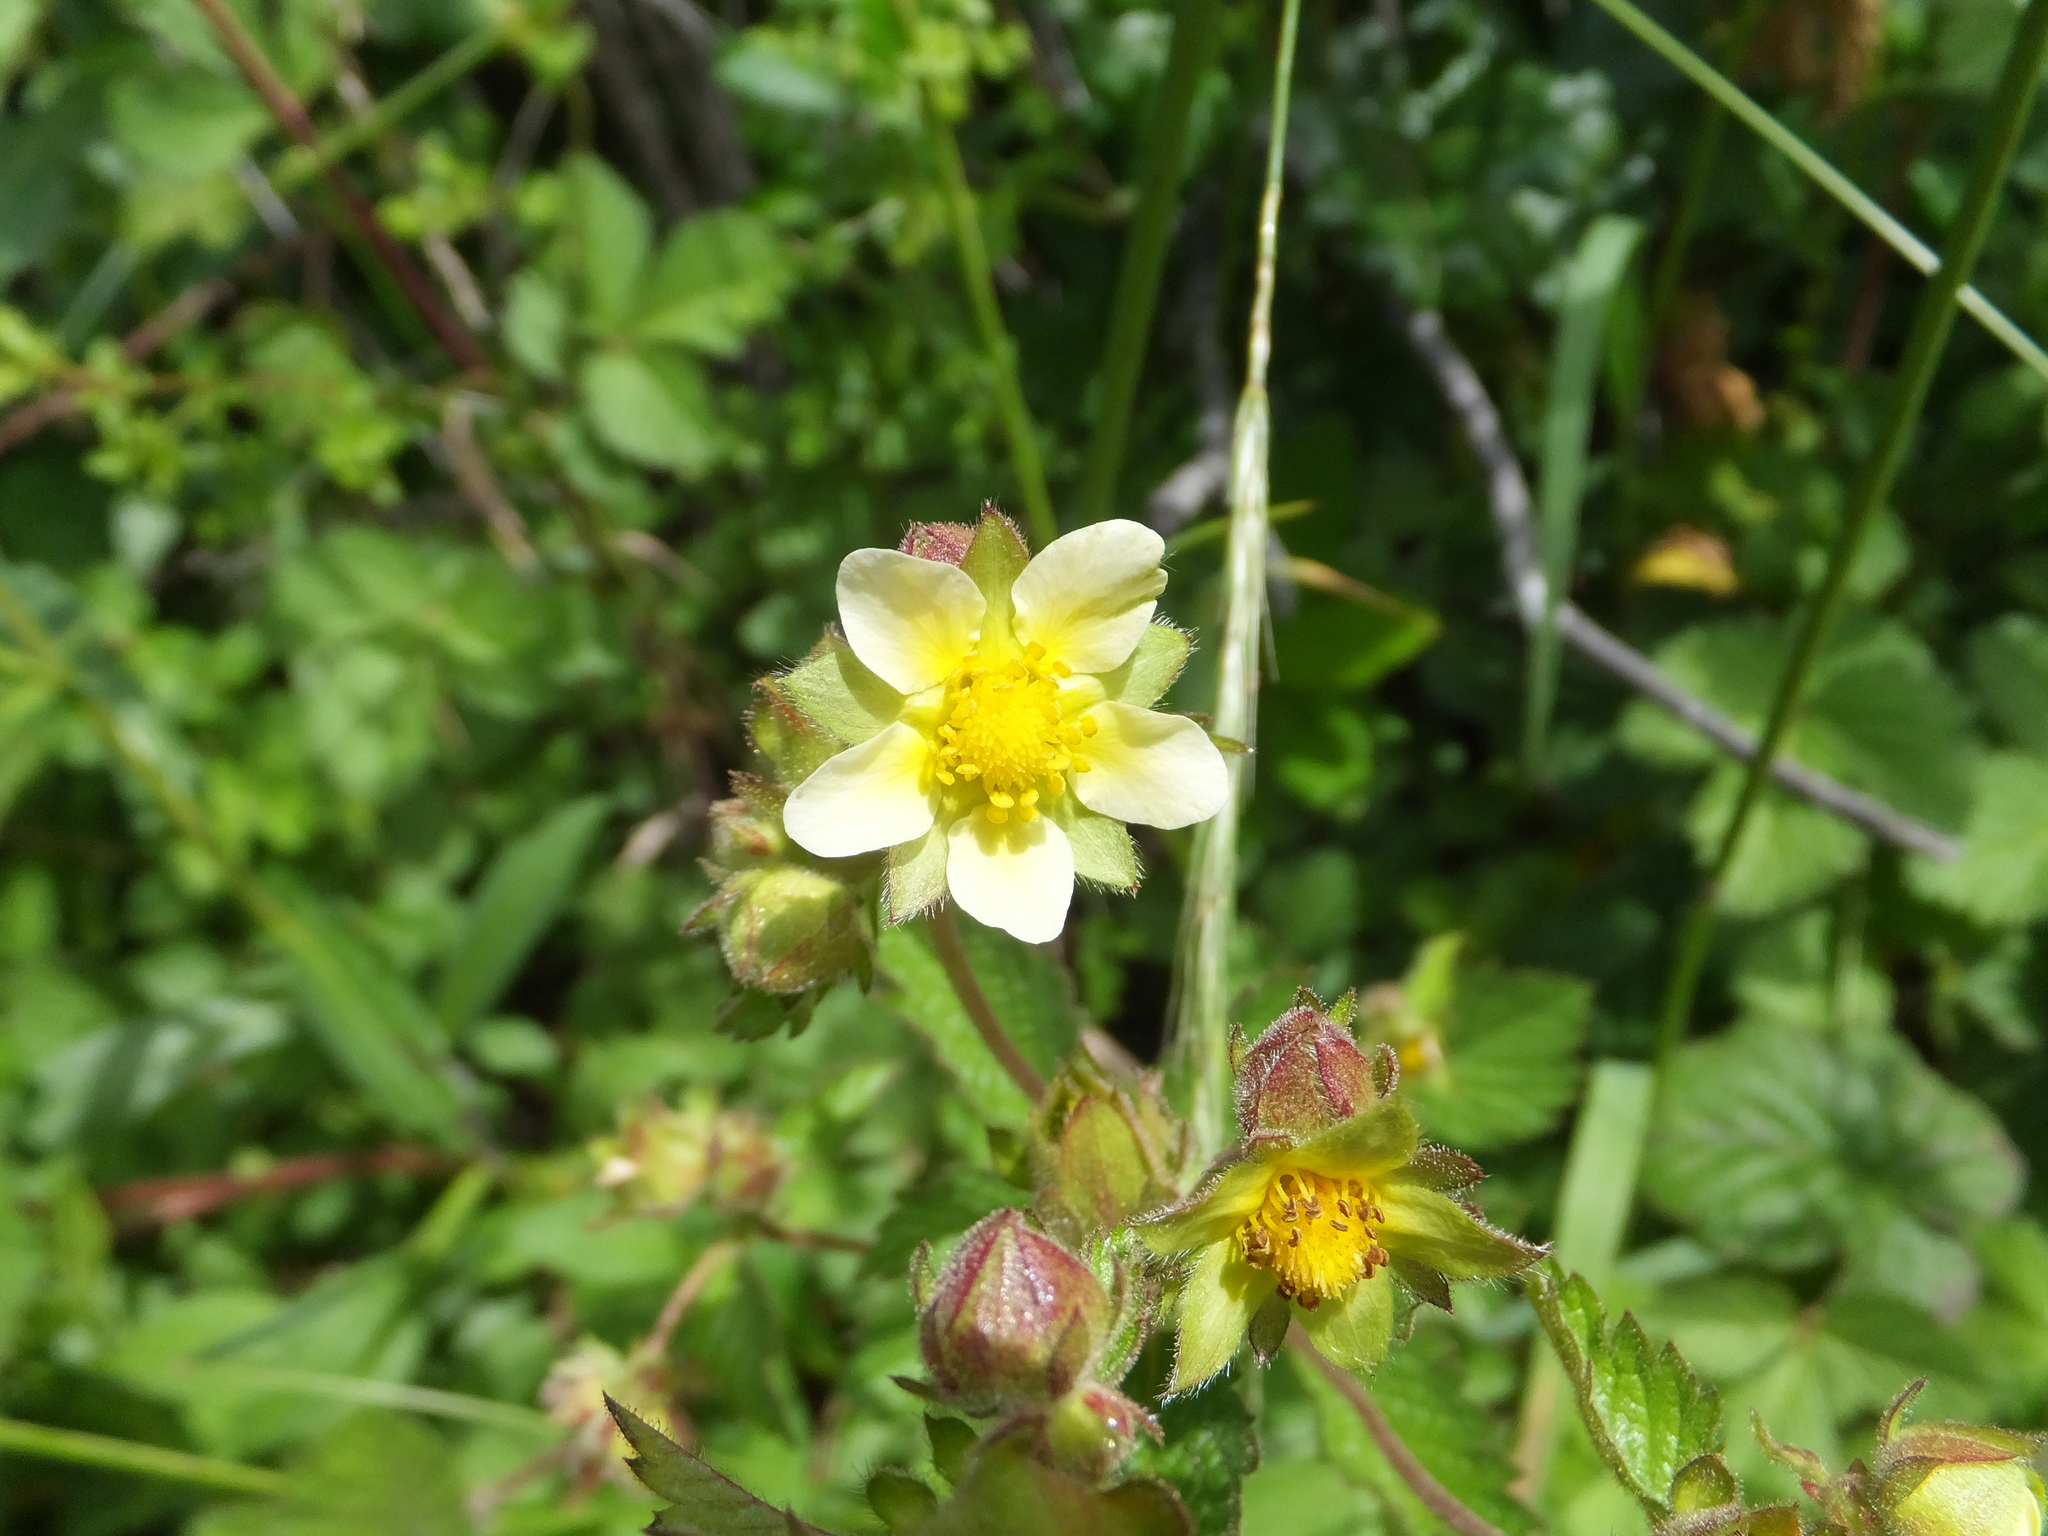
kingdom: Plantae
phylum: Tracheophyta
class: Magnoliopsida
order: Rosales
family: Rosaceae
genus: Drymocallis
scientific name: Drymocallis glandulosa
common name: Sticky cinquefoil
